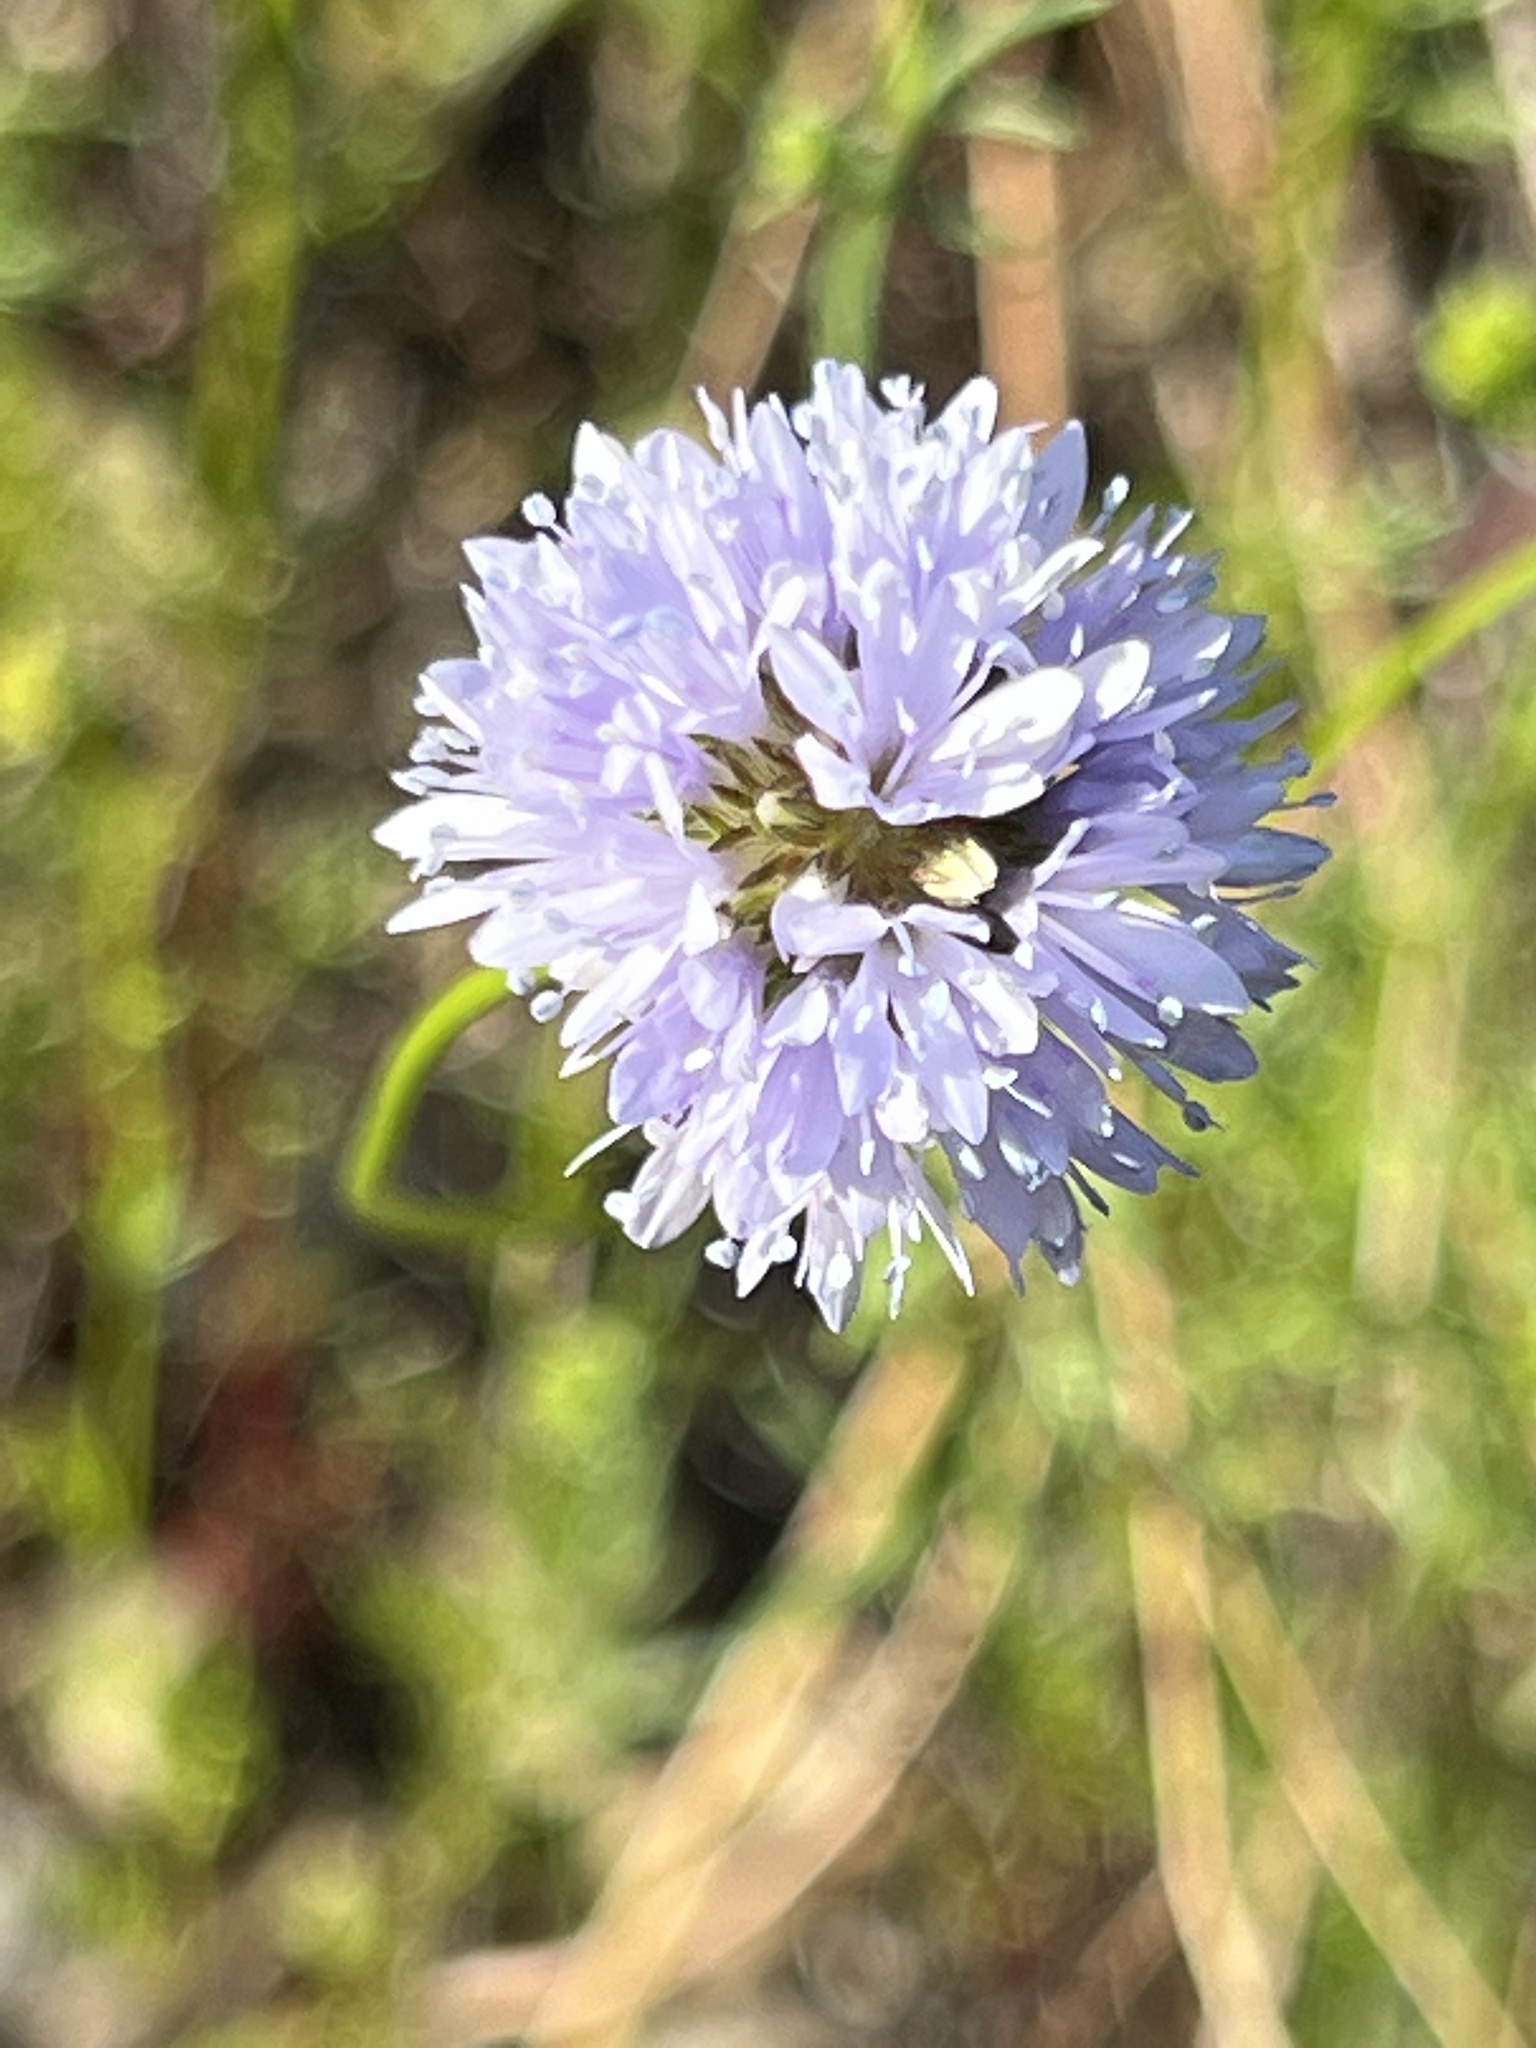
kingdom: Plantae
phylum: Tracheophyta
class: Magnoliopsida
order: Ericales
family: Polemoniaceae
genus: Gilia
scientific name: Gilia capitata
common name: Bluehead gilia
